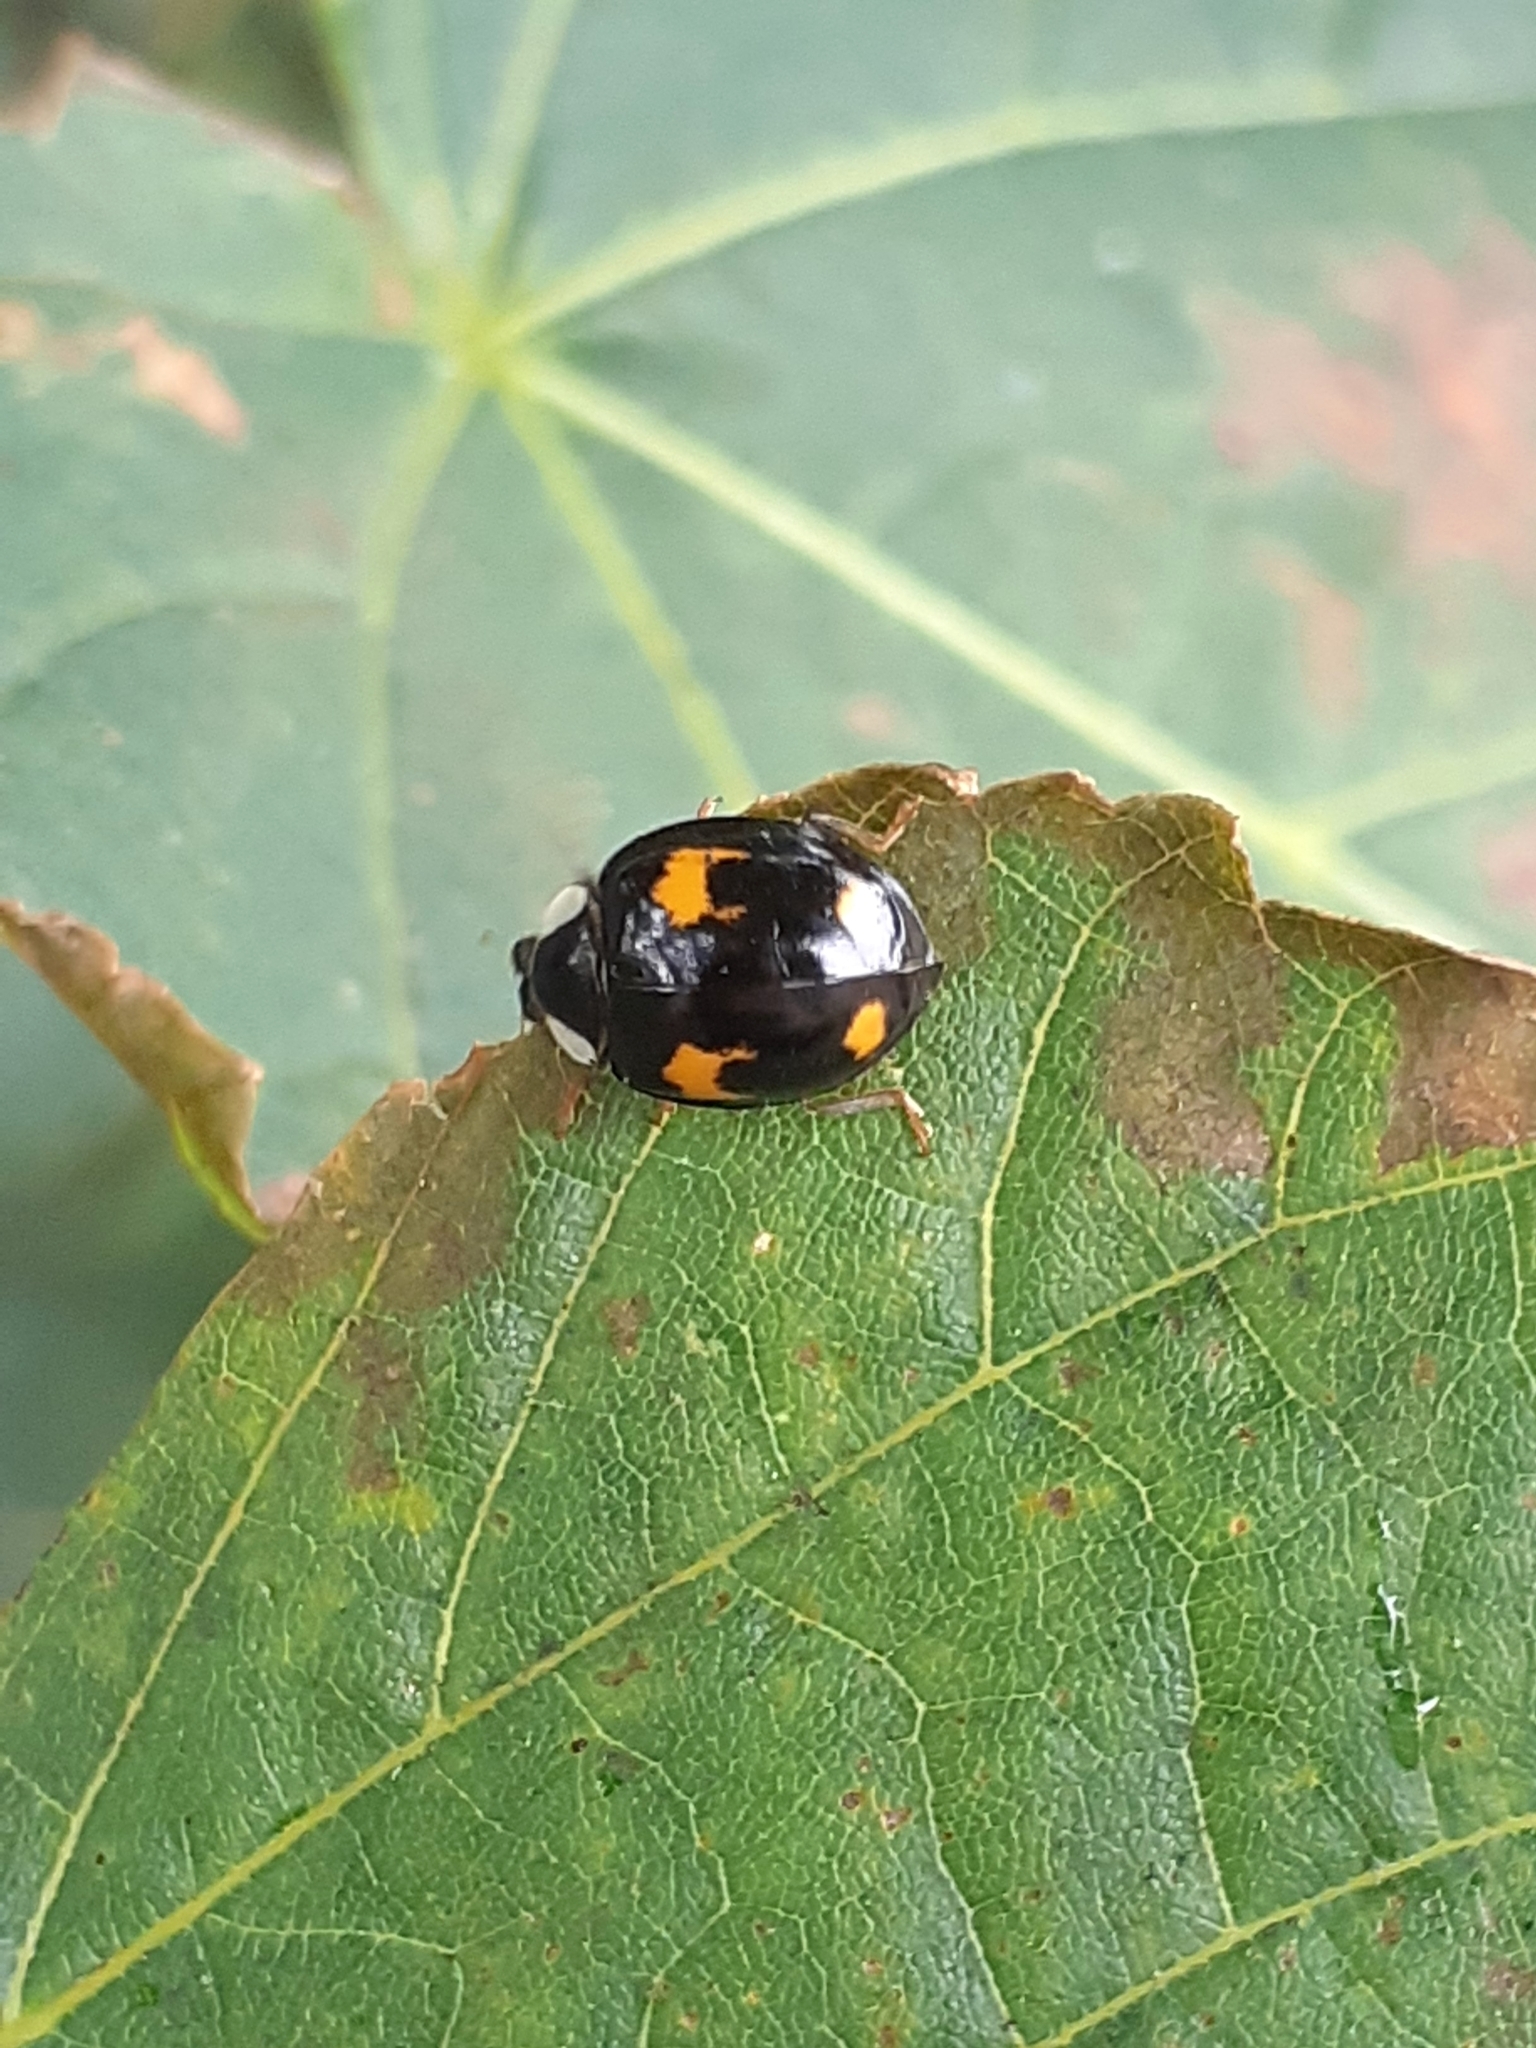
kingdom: Animalia
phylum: Arthropoda
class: Insecta
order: Coleoptera
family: Coccinellidae
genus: Harmonia
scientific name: Harmonia axyridis
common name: Harlequin ladybird
